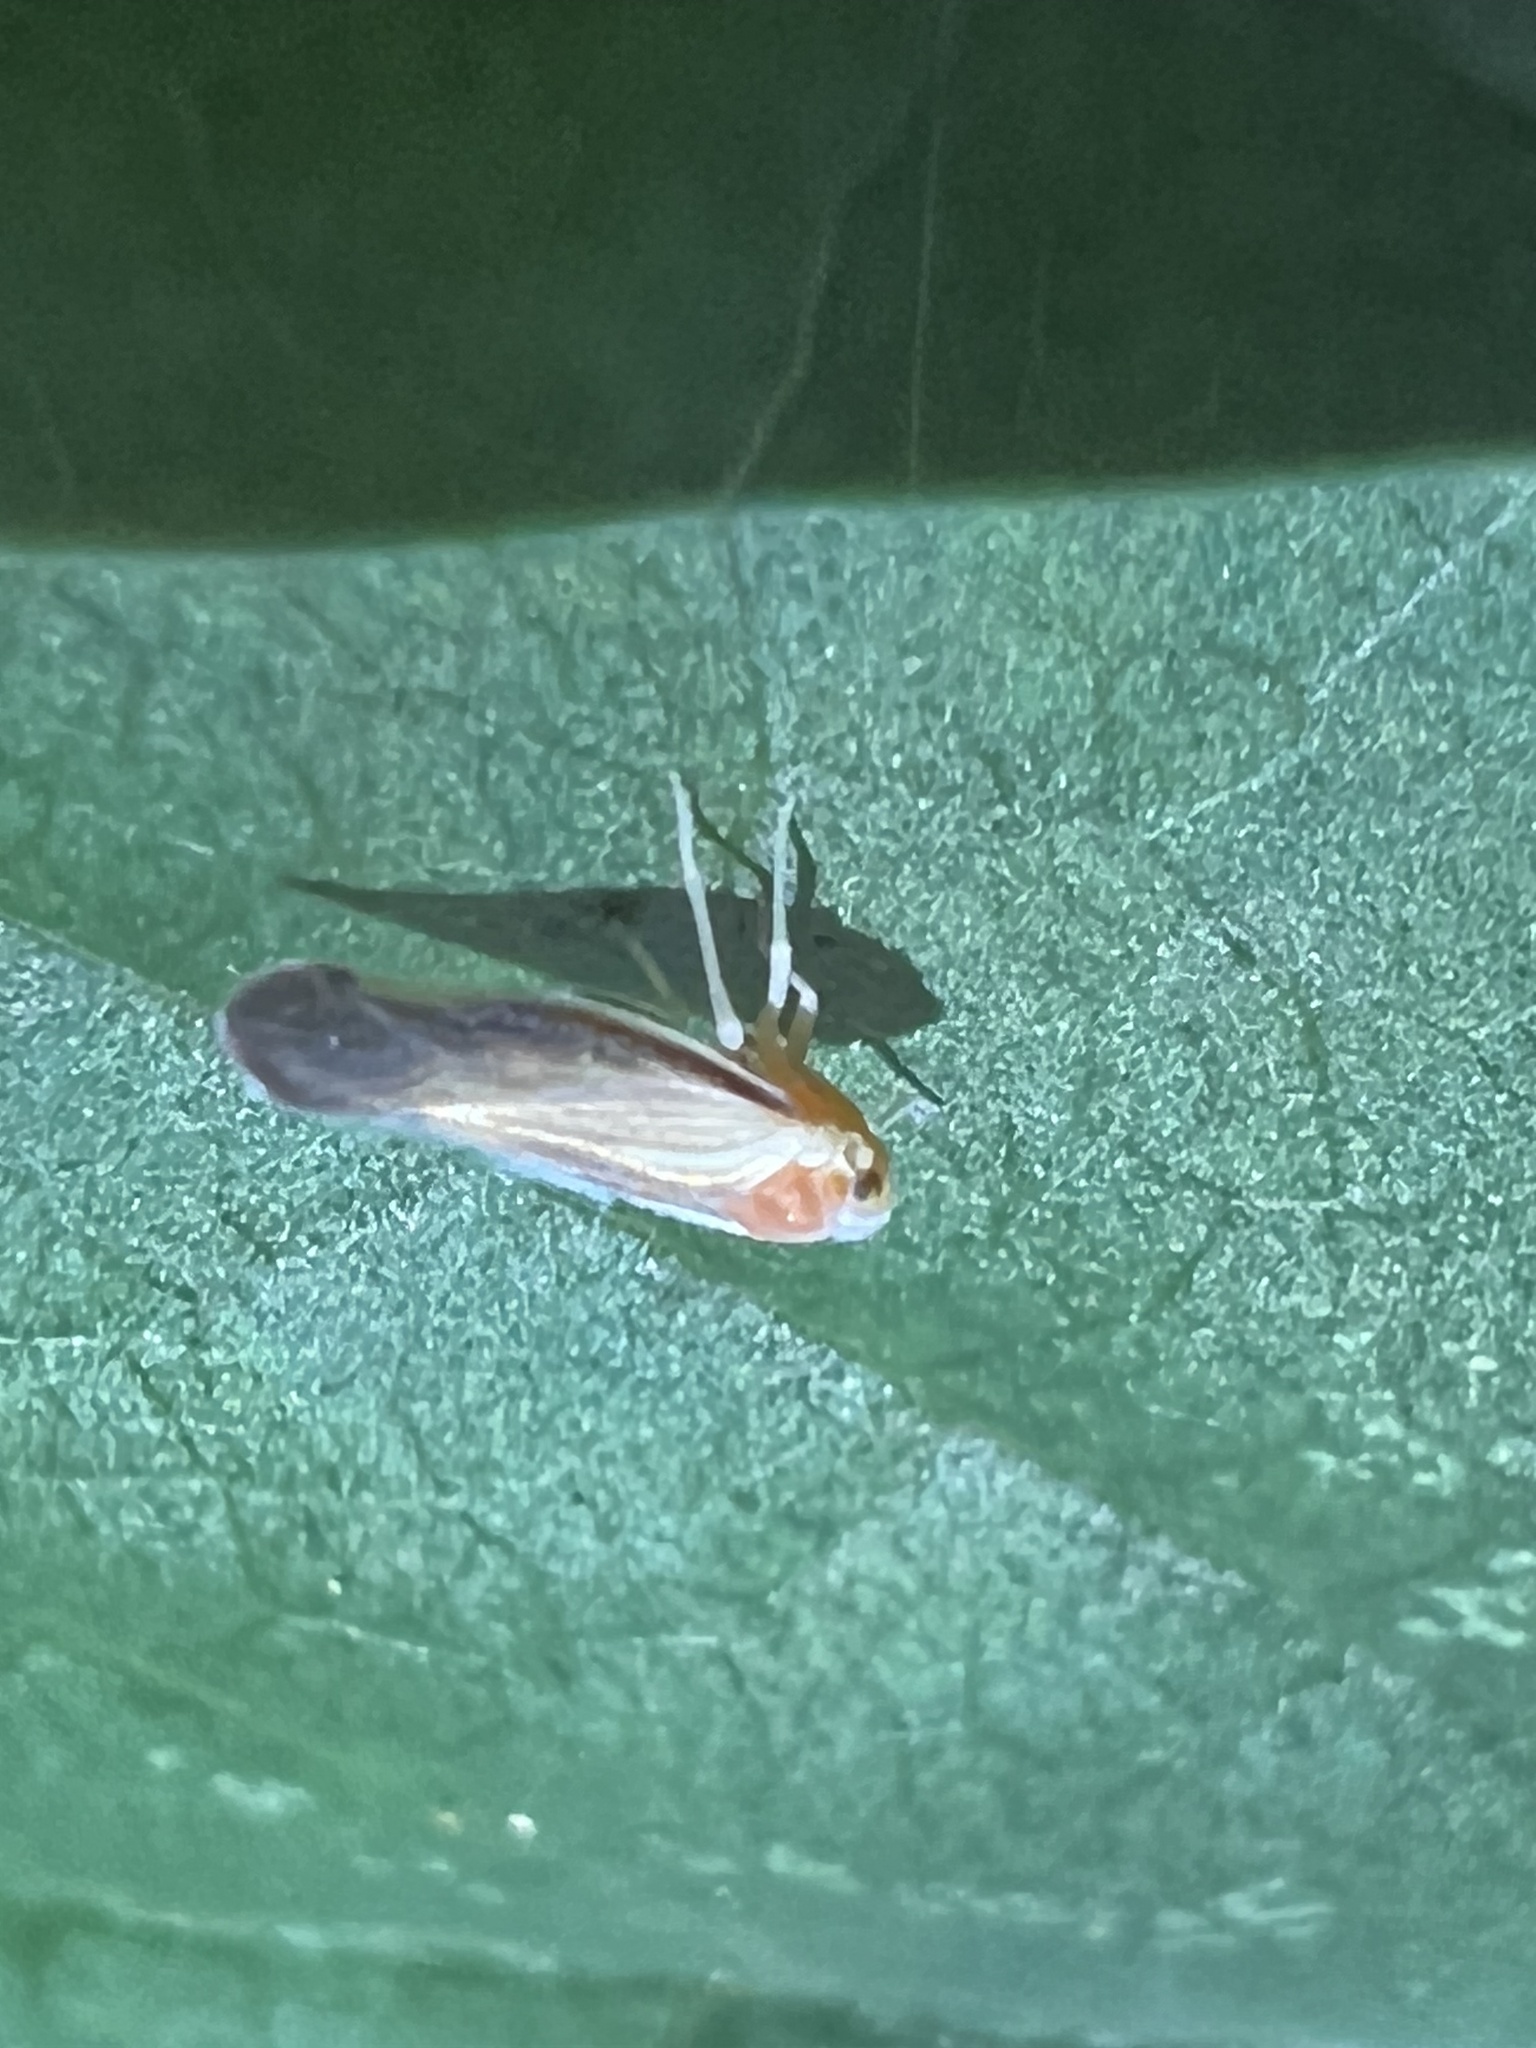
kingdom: Animalia
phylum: Arthropoda
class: Insecta
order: Hemiptera
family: Derbidae
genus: Omolicna
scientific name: Omolicna uhleri
